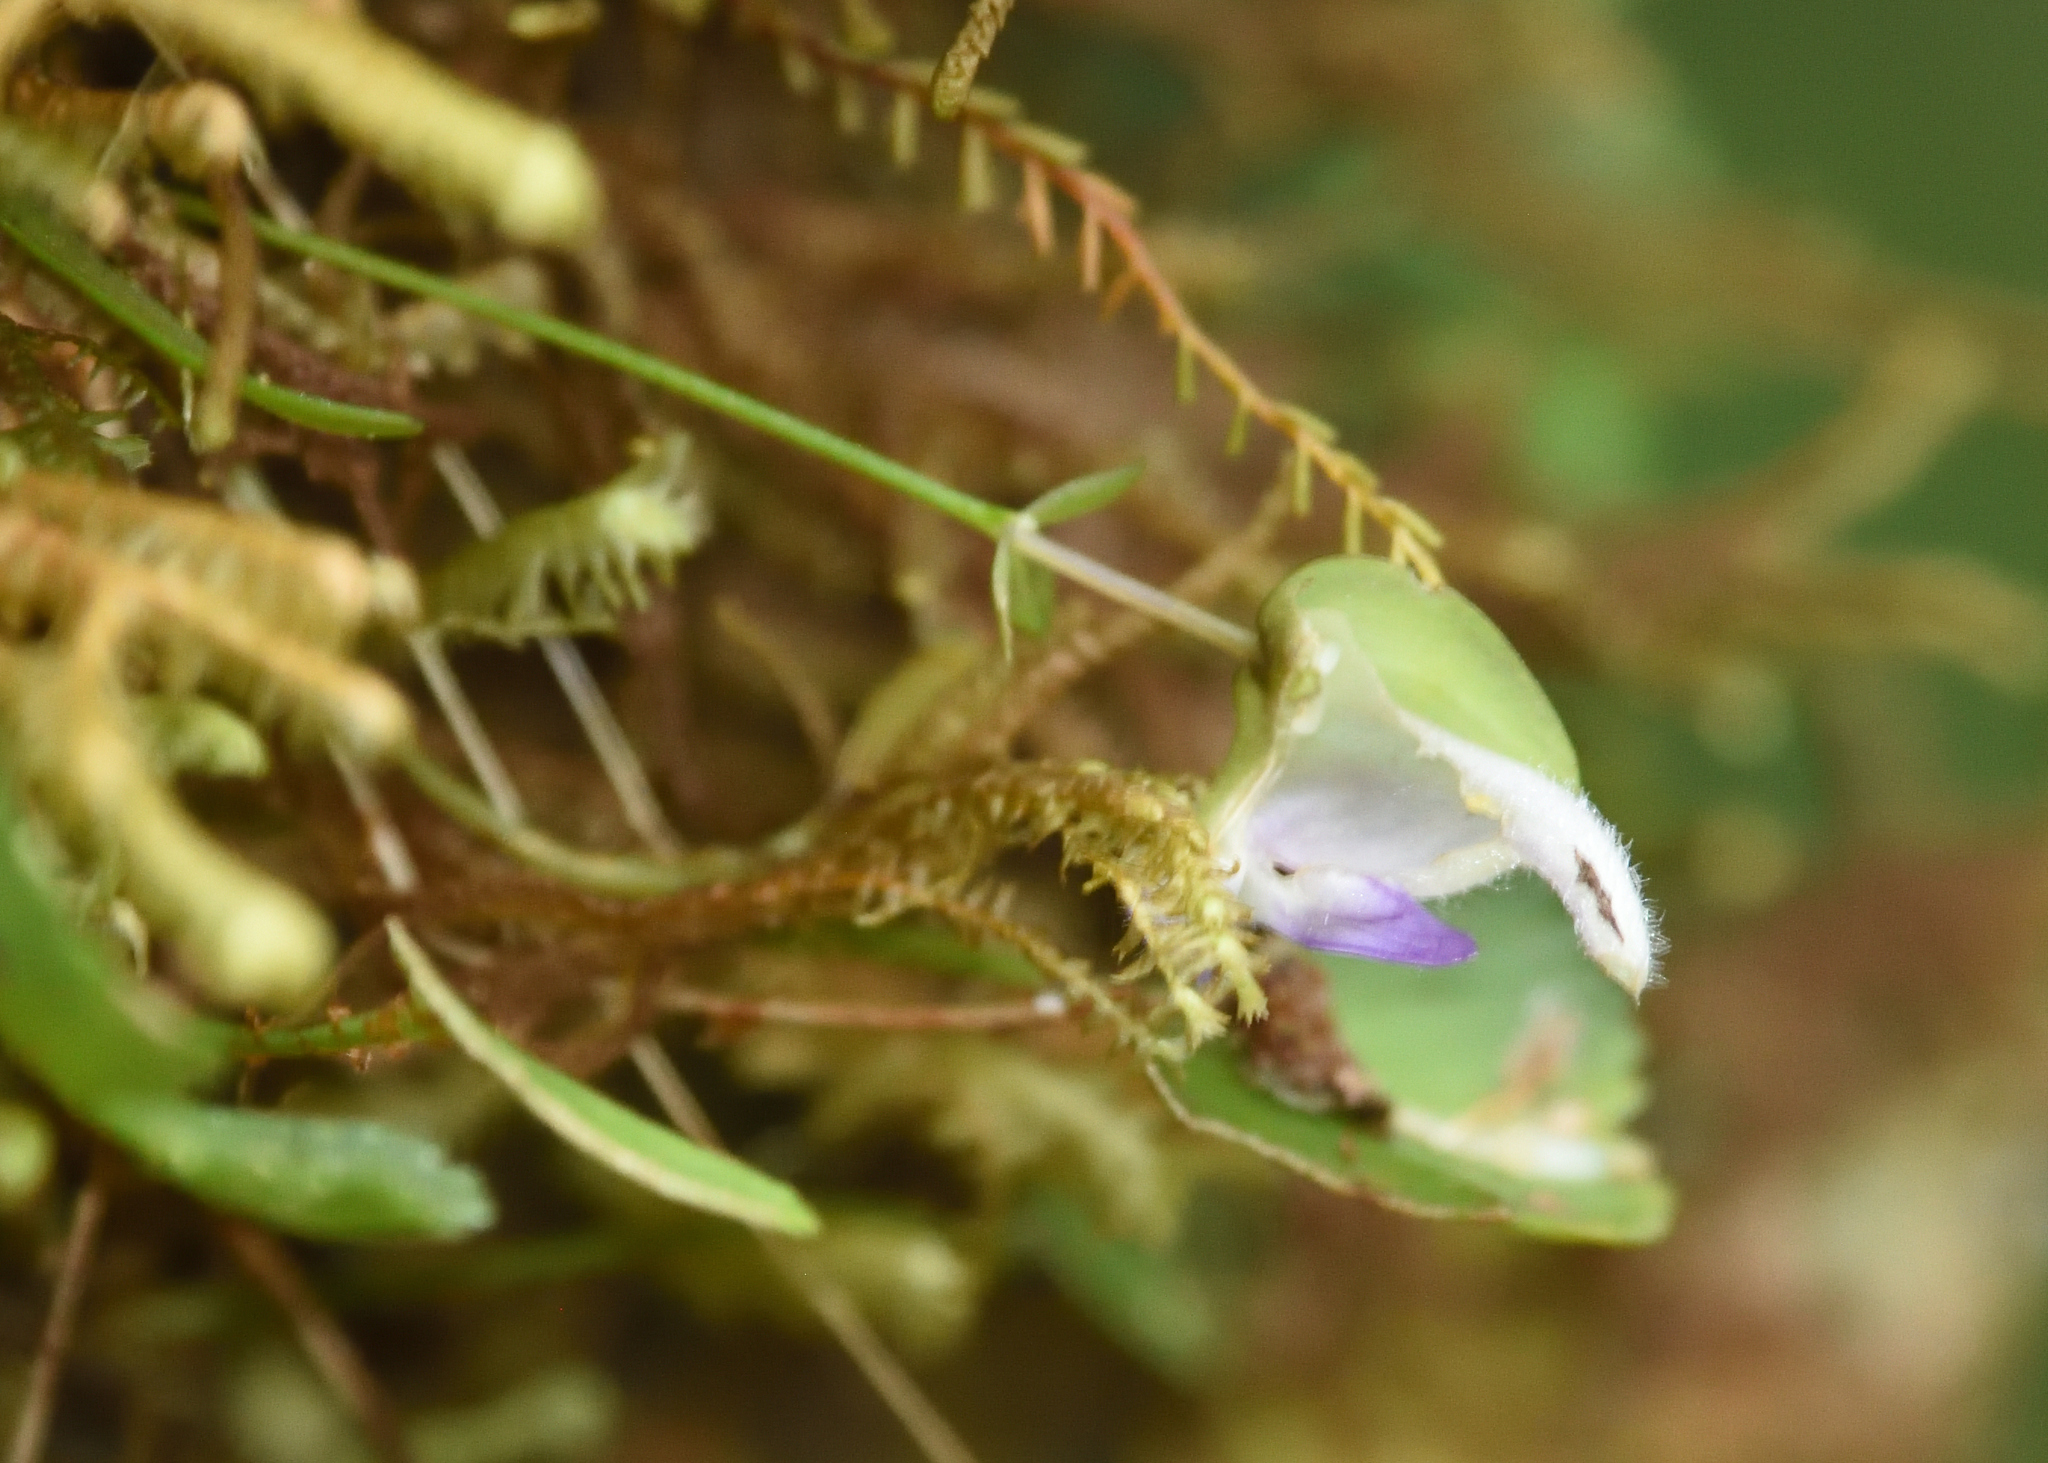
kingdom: Plantae
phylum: Tracheophyta
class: Magnoliopsida
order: Lamiales
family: Lentibulariaceae
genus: Utricularia
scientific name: Utricularia jamesoniana
